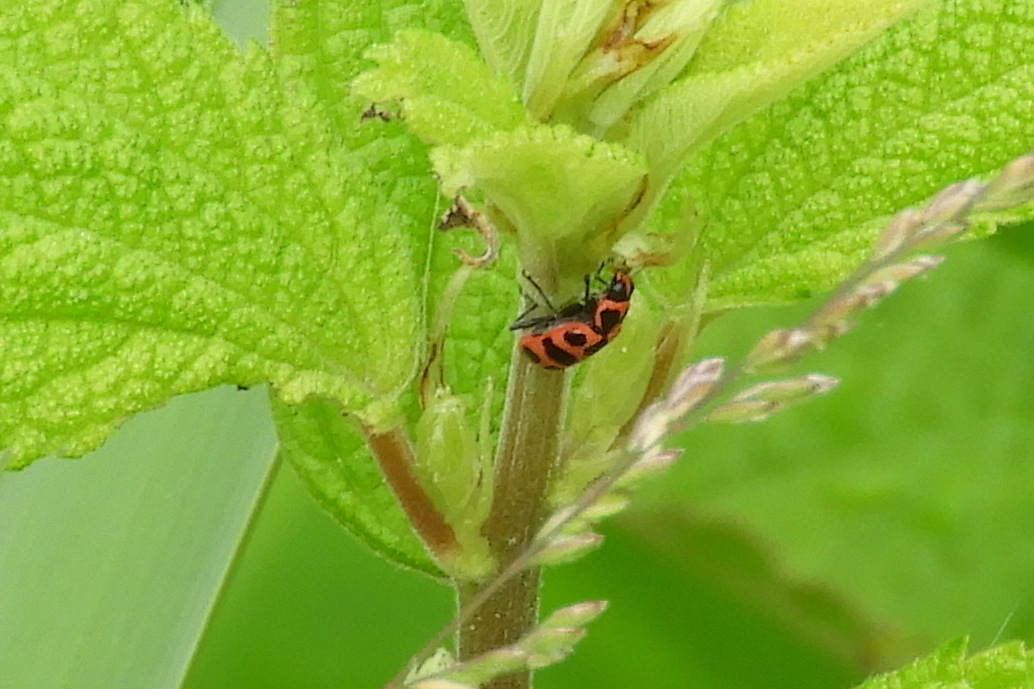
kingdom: Animalia
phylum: Arthropoda
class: Insecta
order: Coleoptera
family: Coccinellidae
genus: Coleomegilla
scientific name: Coleomegilla maculata
